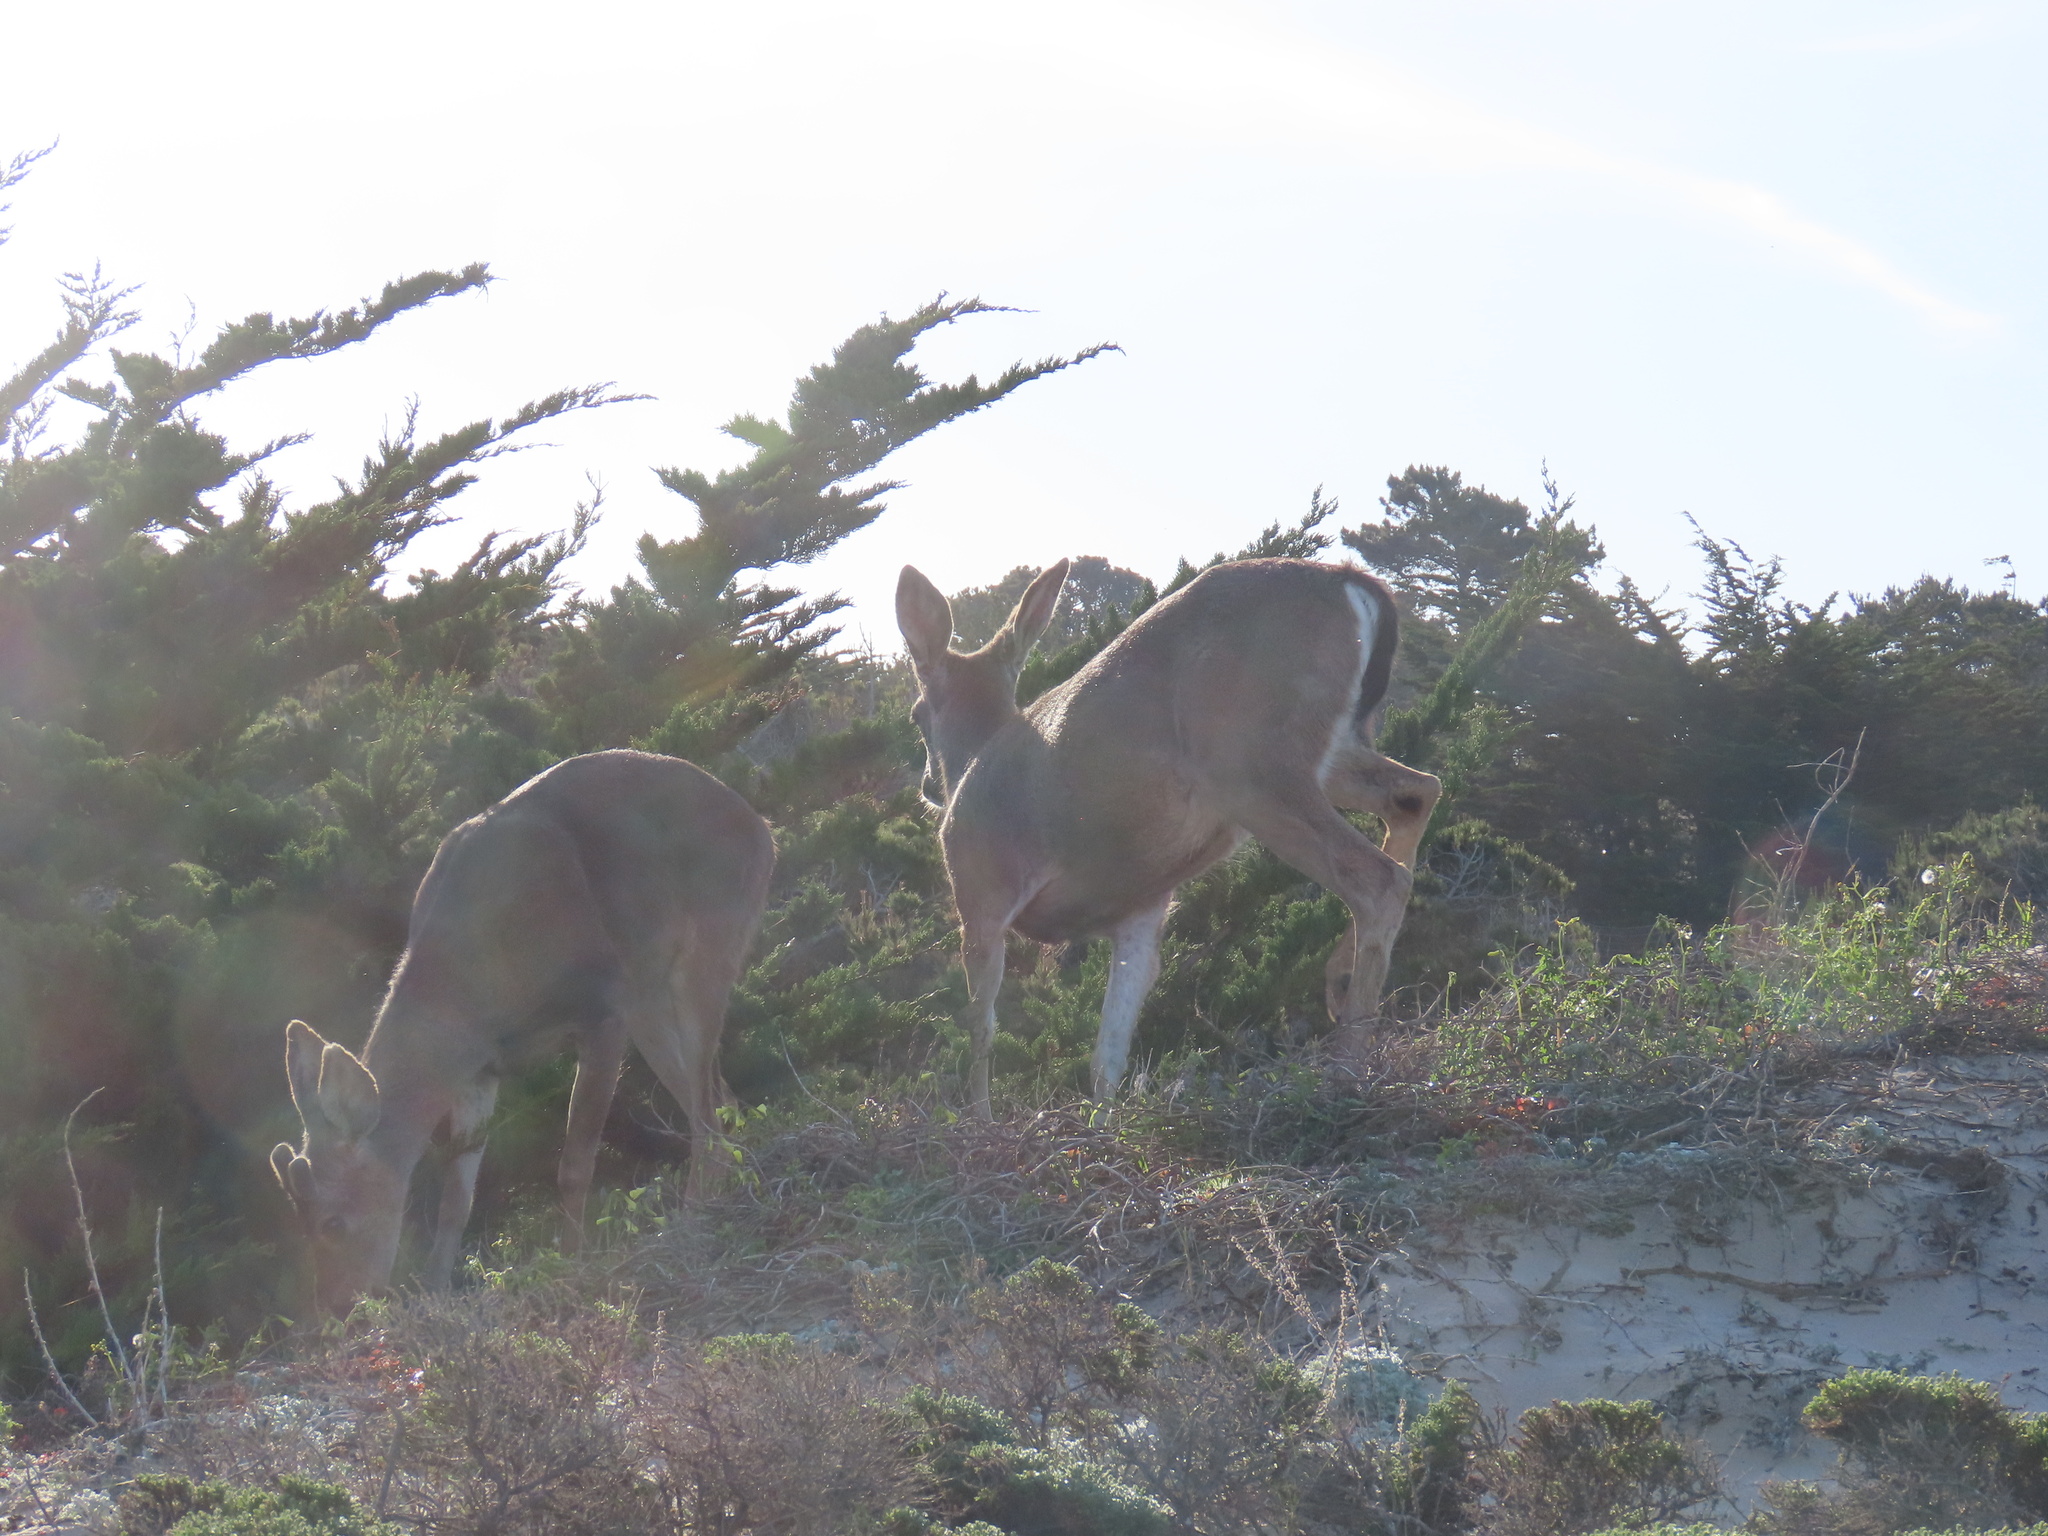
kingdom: Animalia
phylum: Chordata
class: Mammalia
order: Artiodactyla
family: Cervidae
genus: Odocoileus
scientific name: Odocoileus hemionus
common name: Mule deer
